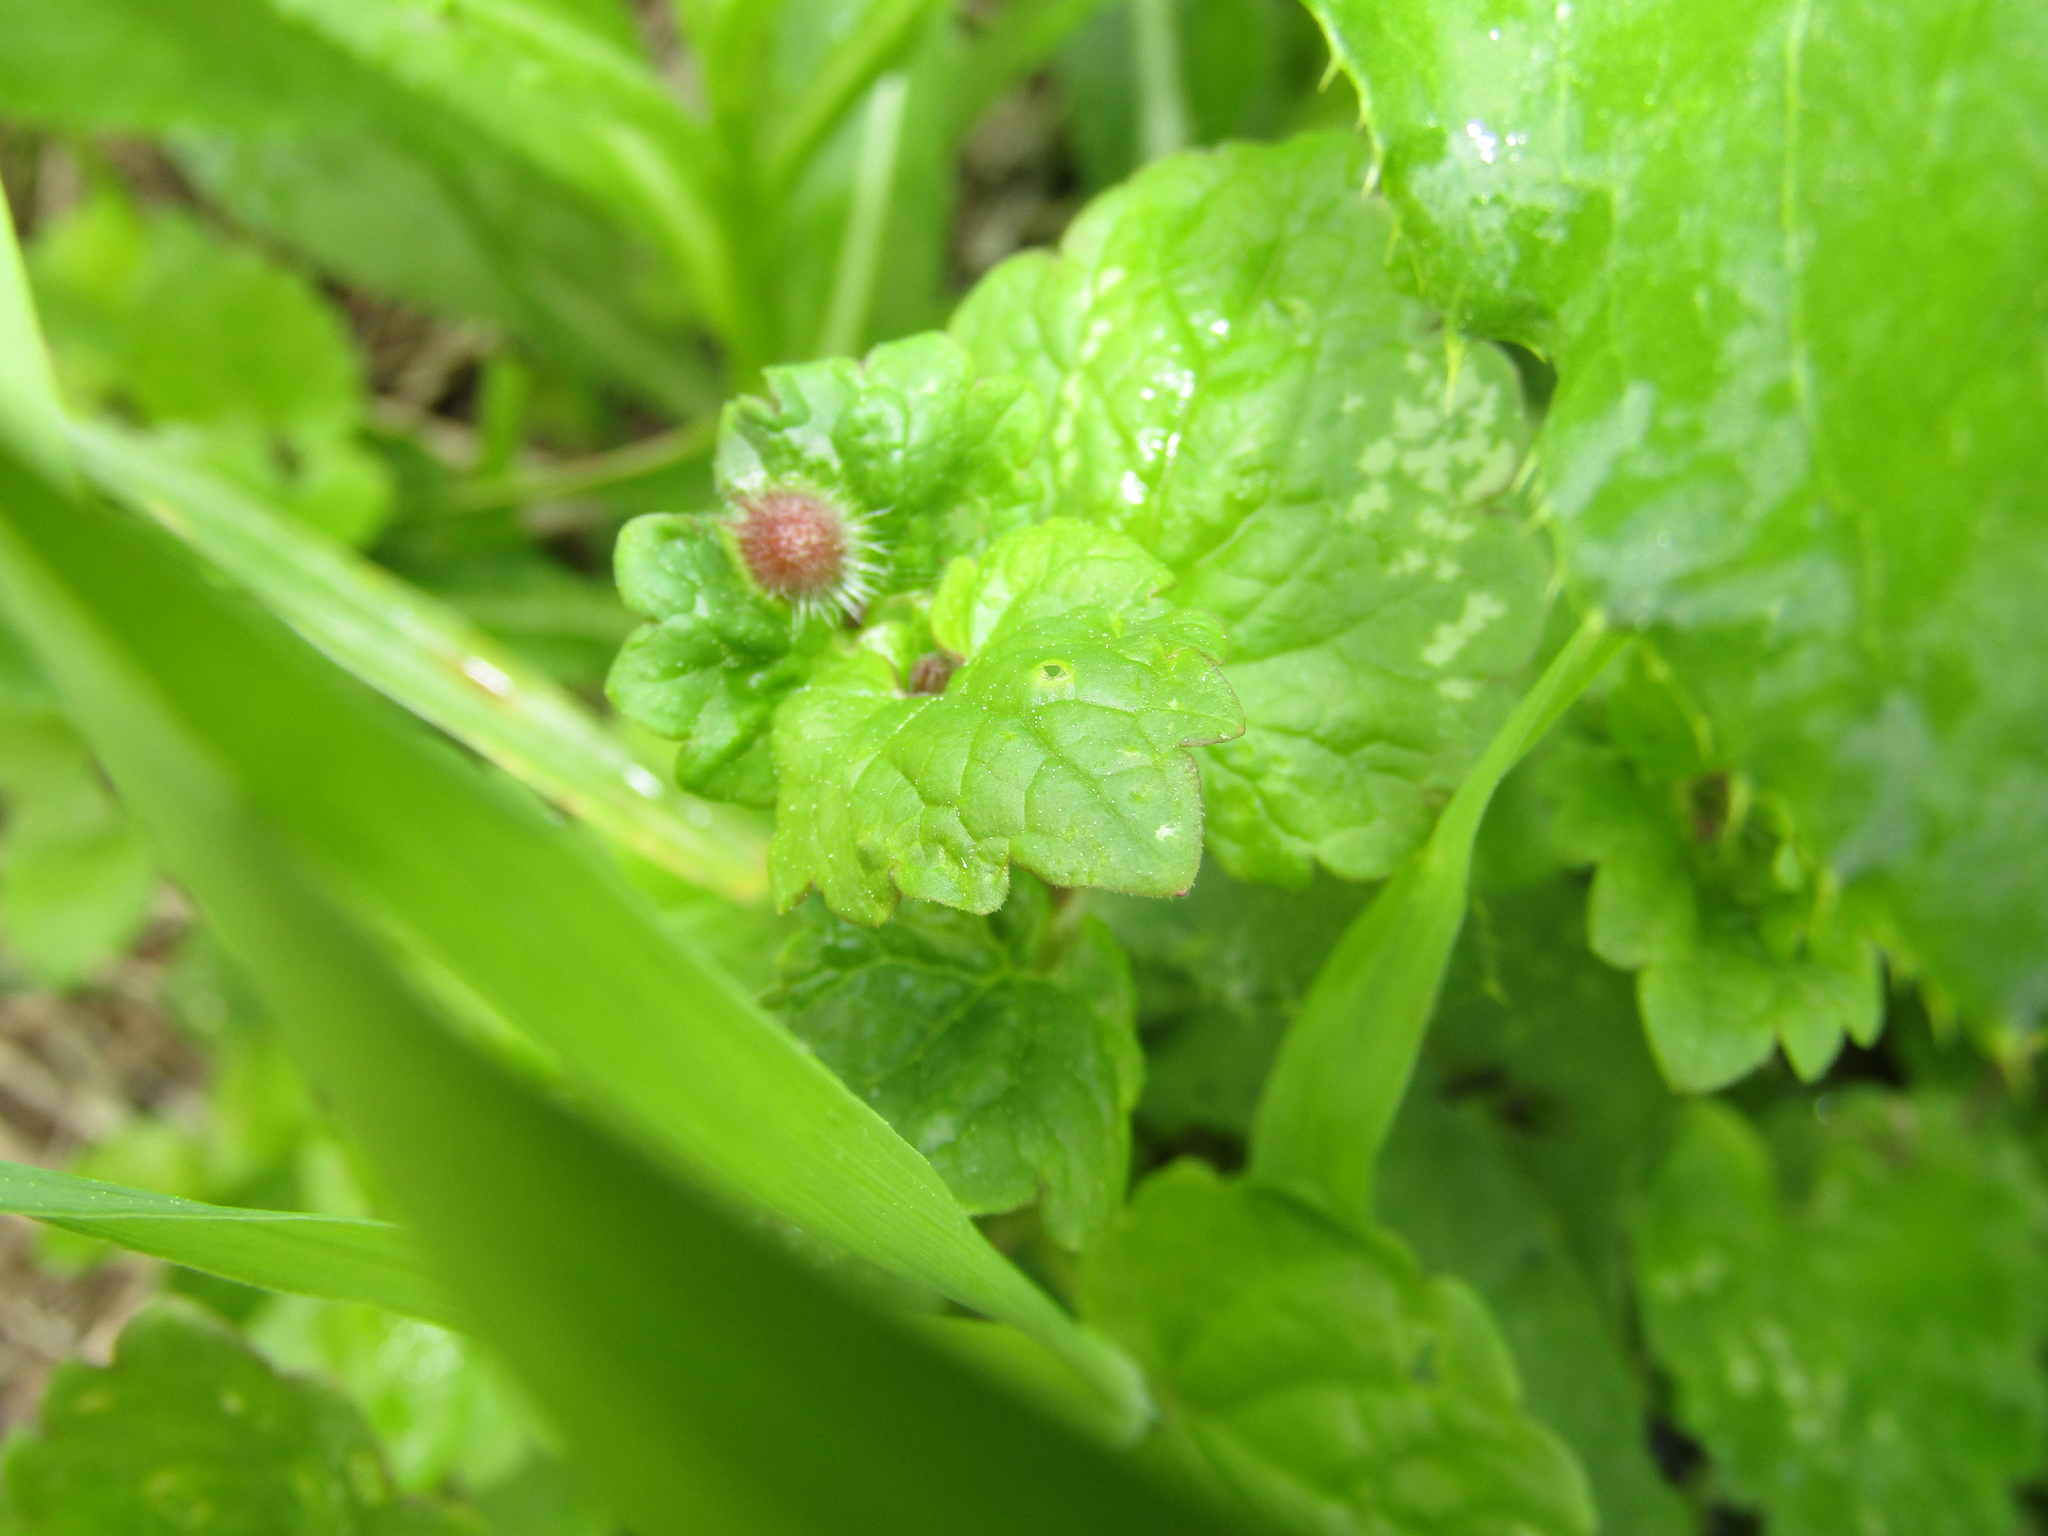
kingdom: Animalia
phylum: Arthropoda
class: Insecta
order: Hymenoptera
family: Cynipidae
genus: Liposthenes
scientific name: Liposthenes glechomae
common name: Gall wasp
